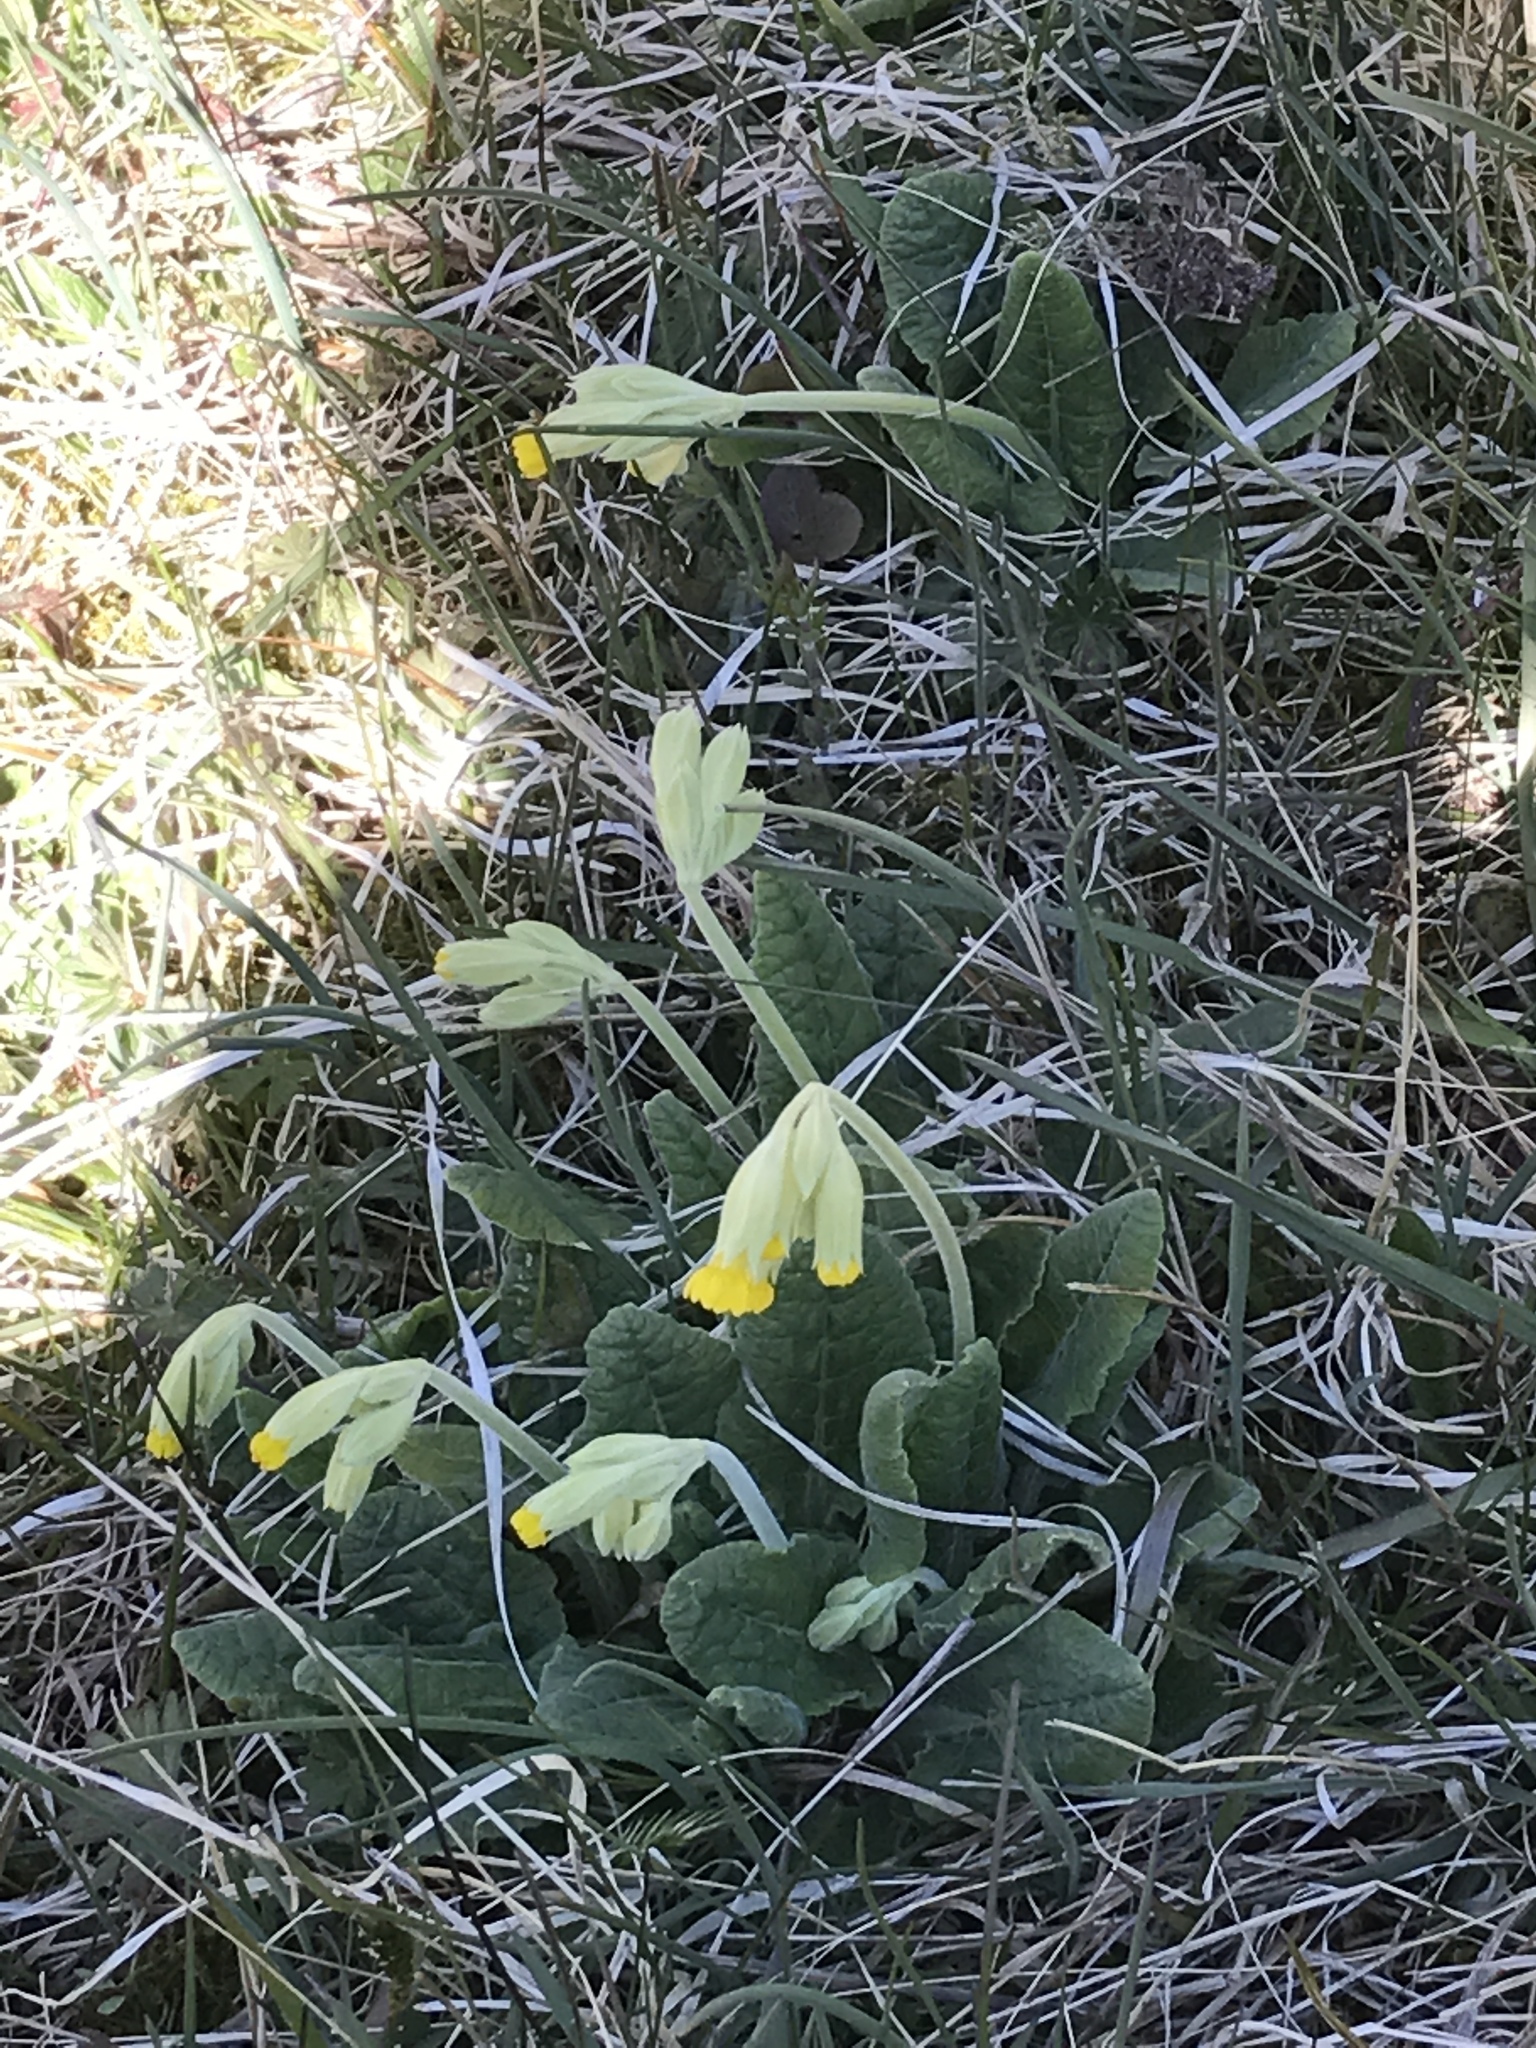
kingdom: Plantae
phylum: Tracheophyta
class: Magnoliopsida
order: Ericales
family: Primulaceae
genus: Primula
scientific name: Primula veris
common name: Cowslip
